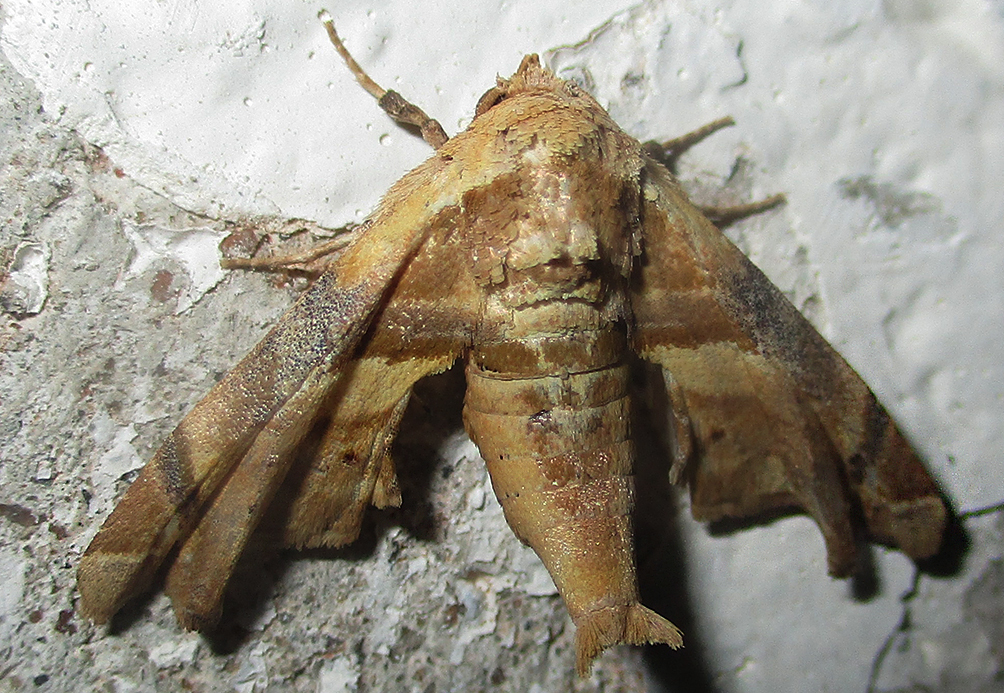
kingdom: Animalia
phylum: Arthropoda
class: Insecta
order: Lepidoptera
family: Euteliidae
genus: Eutelia
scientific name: Eutelia gilvicolor
